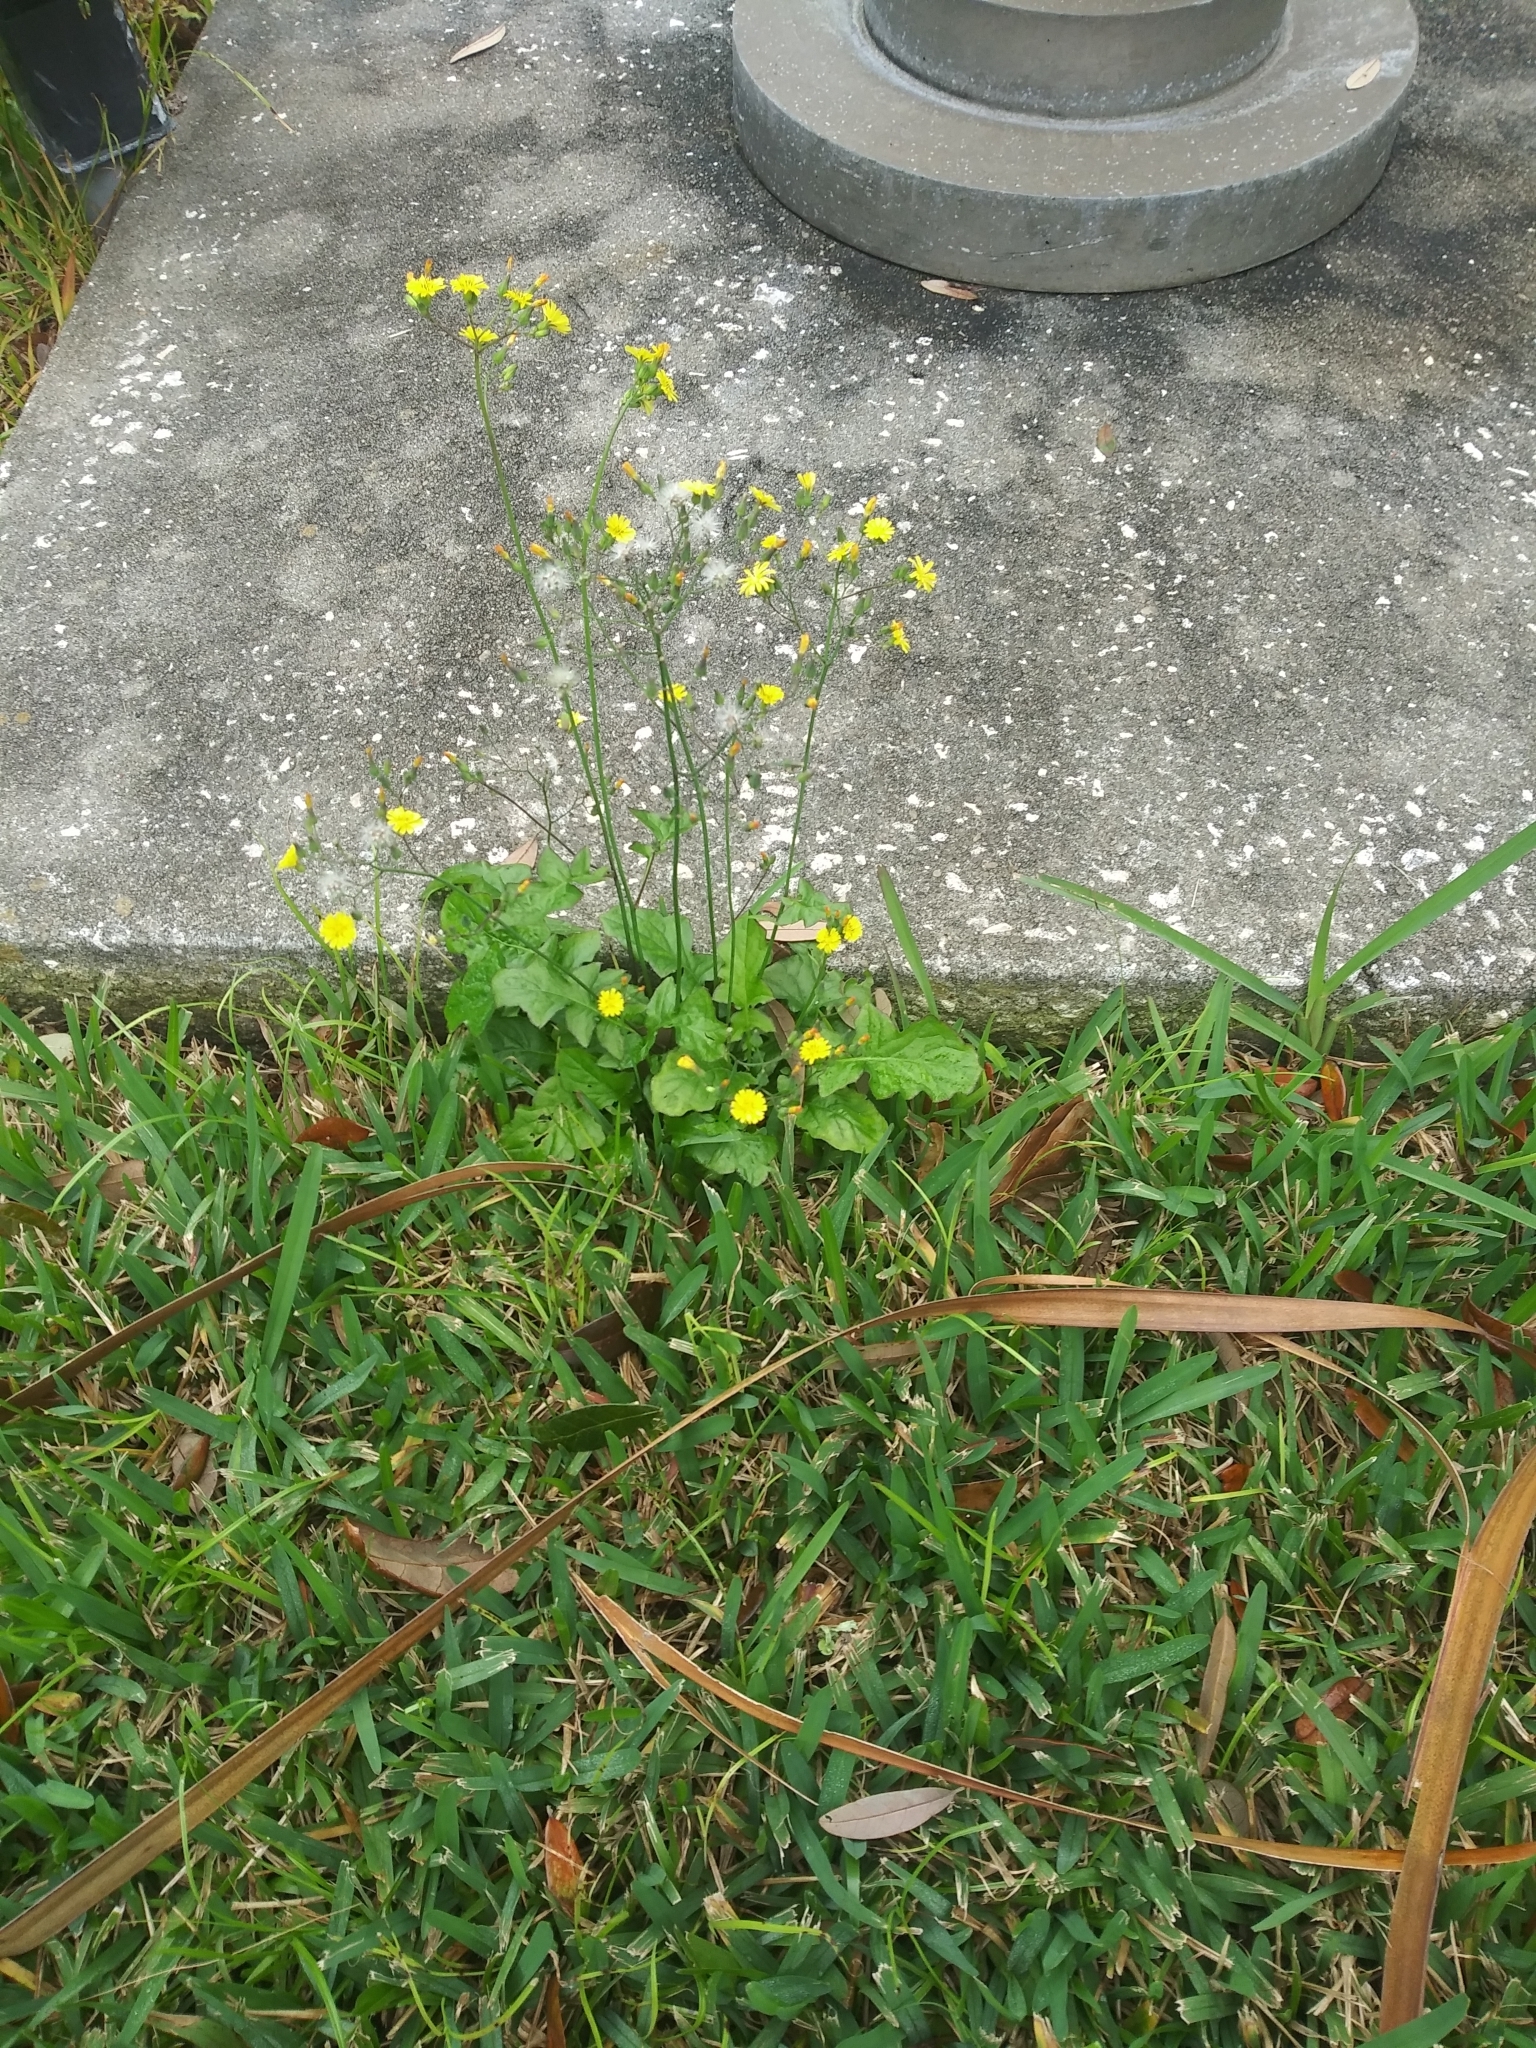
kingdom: Plantae
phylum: Tracheophyta
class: Magnoliopsida
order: Asterales
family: Asteraceae
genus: Youngia
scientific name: Youngia japonica
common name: Oriental false hawksbeard
